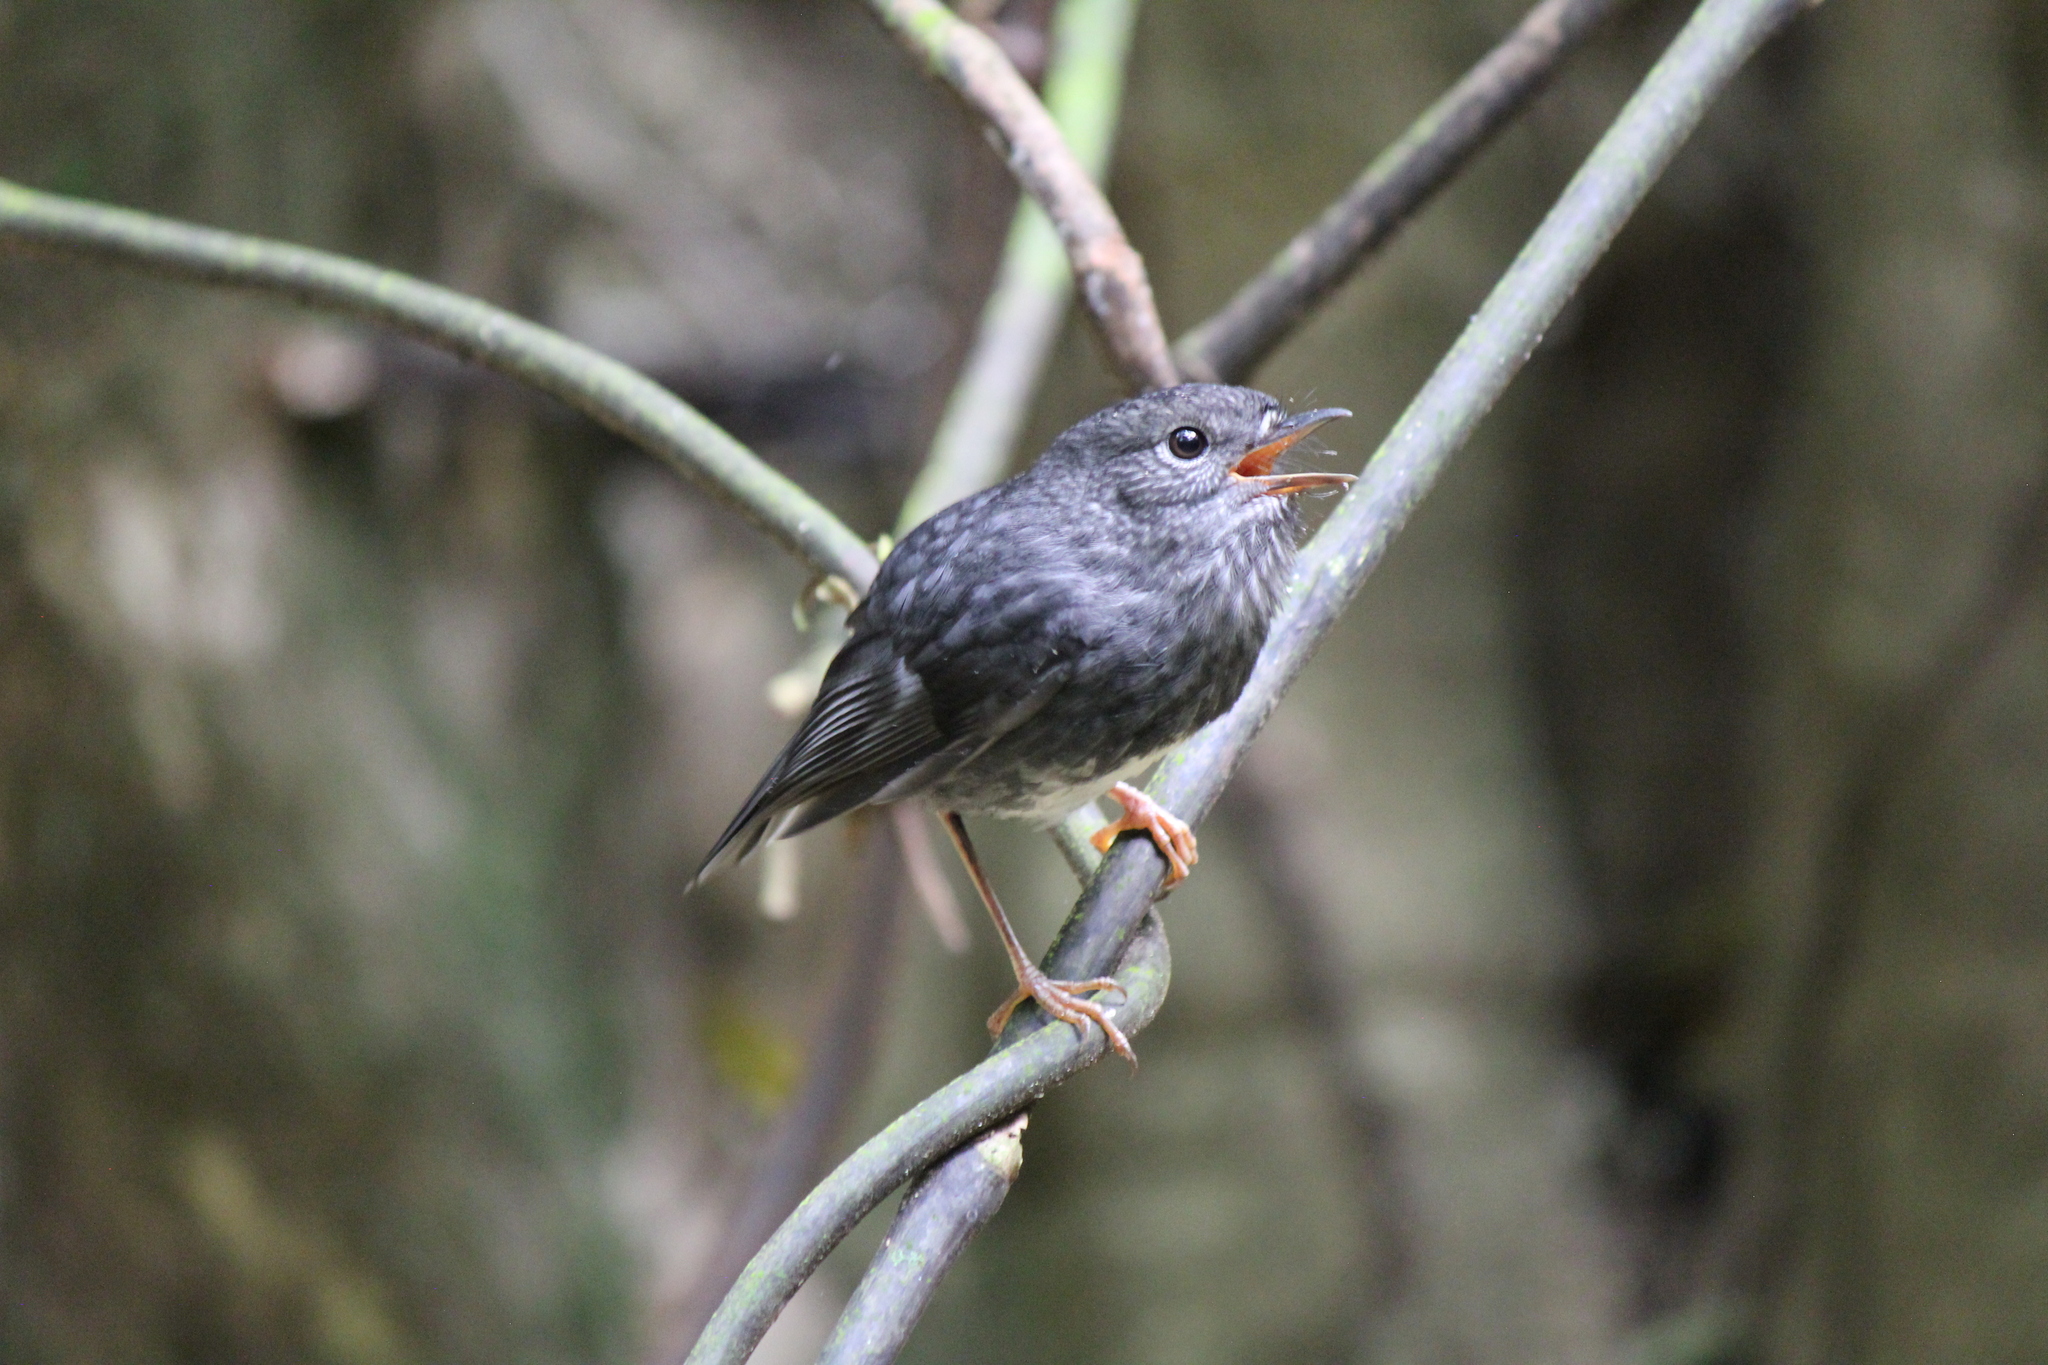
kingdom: Animalia
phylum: Chordata
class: Aves
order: Passeriformes
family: Petroicidae
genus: Petroica
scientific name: Petroica australis
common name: New zealand robin
